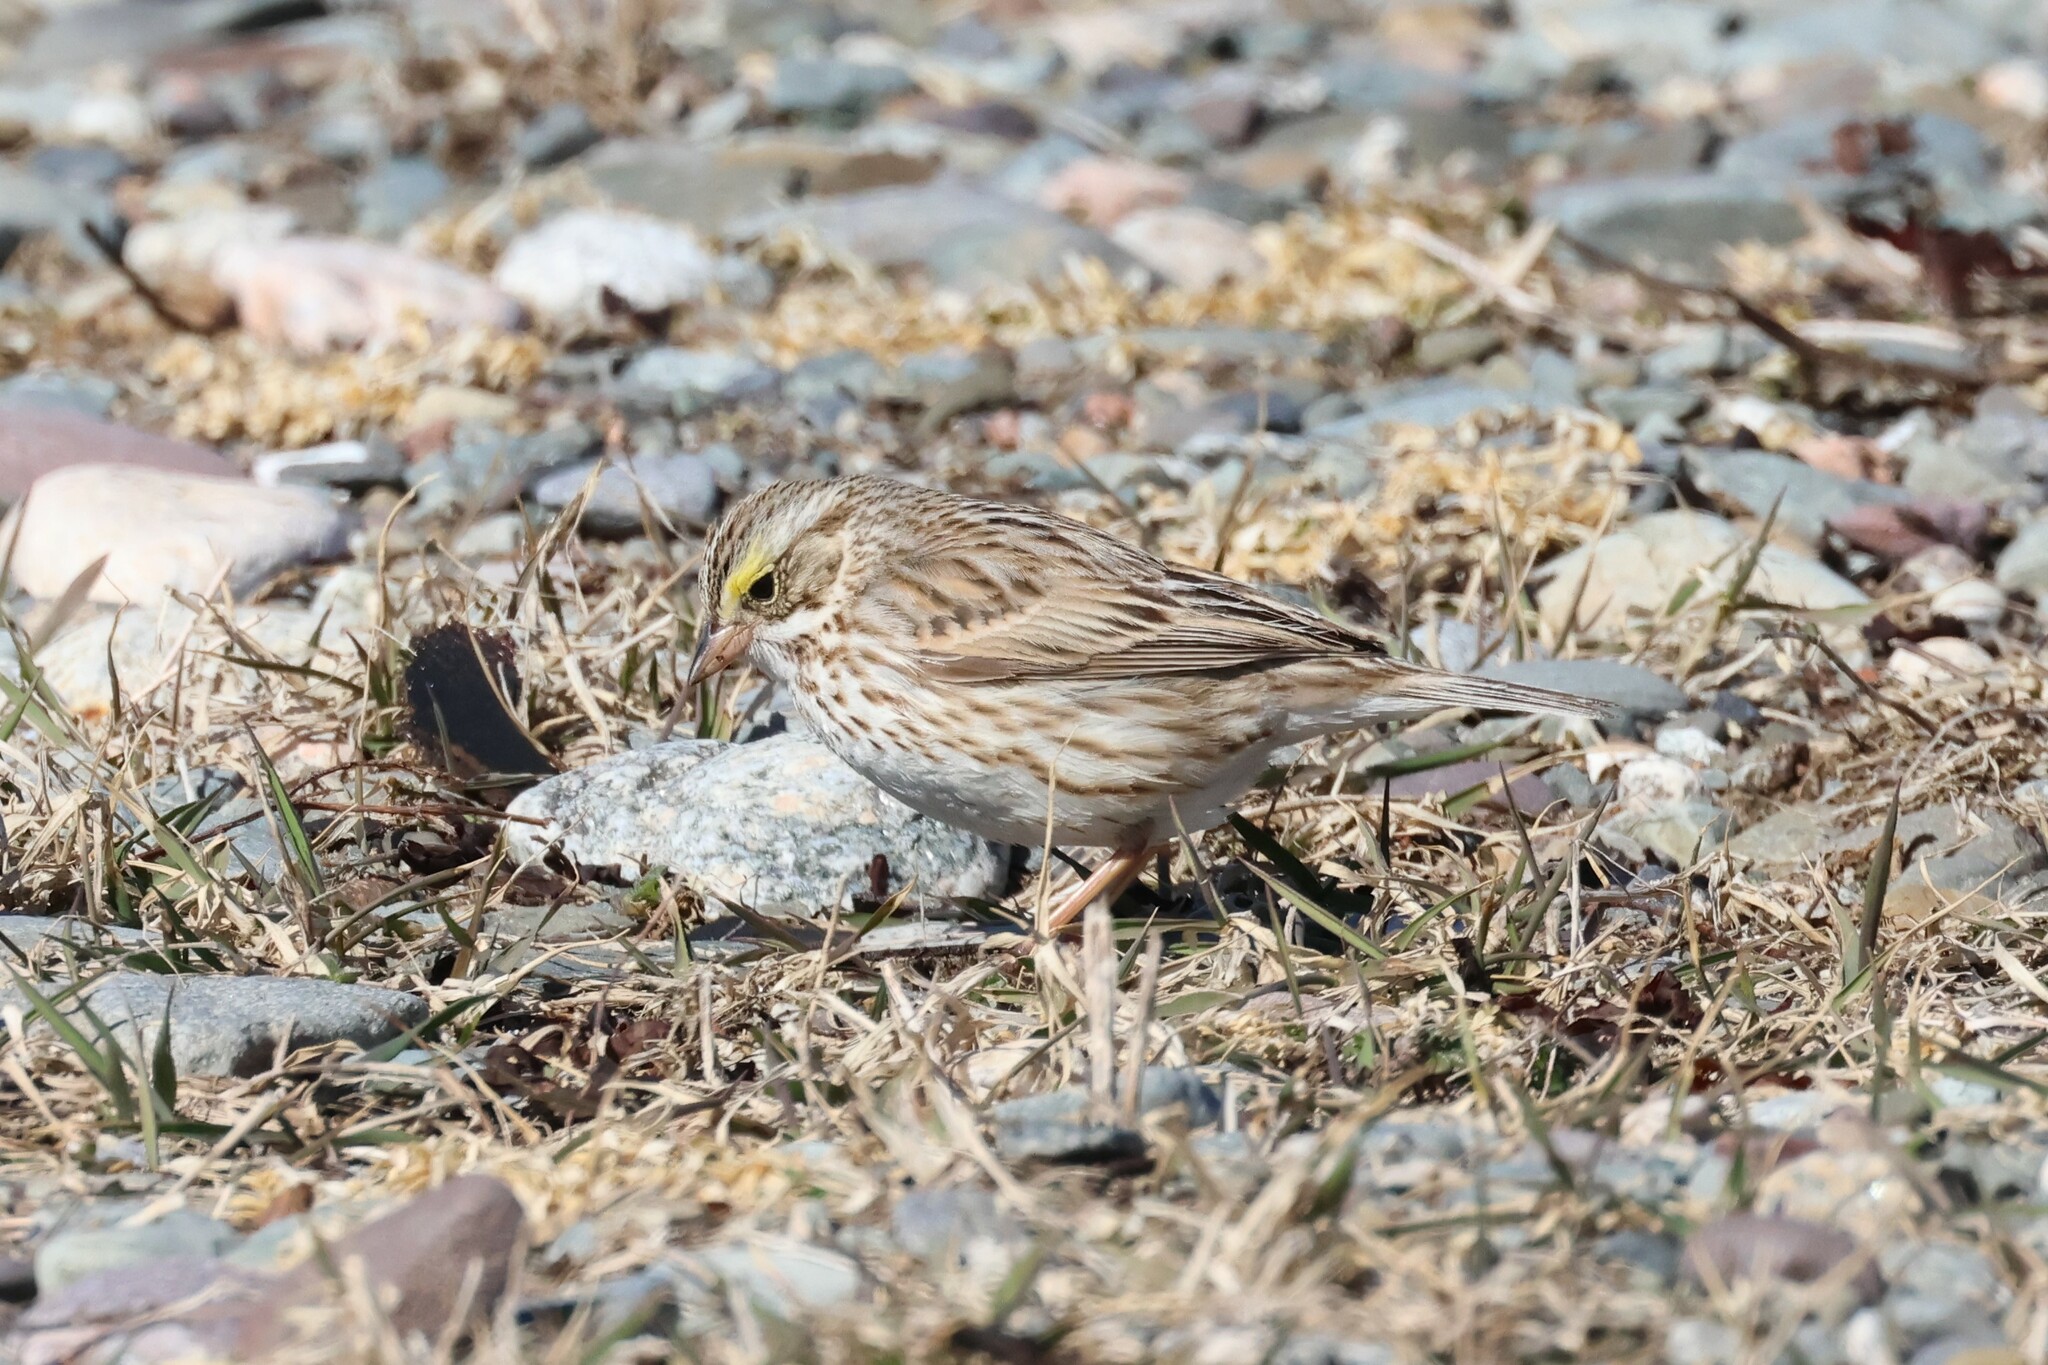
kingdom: Animalia
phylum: Chordata
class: Aves
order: Passeriformes
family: Passerellidae
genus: Passerculus
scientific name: Passerculus sandwichensis
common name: Savannah sparrow
